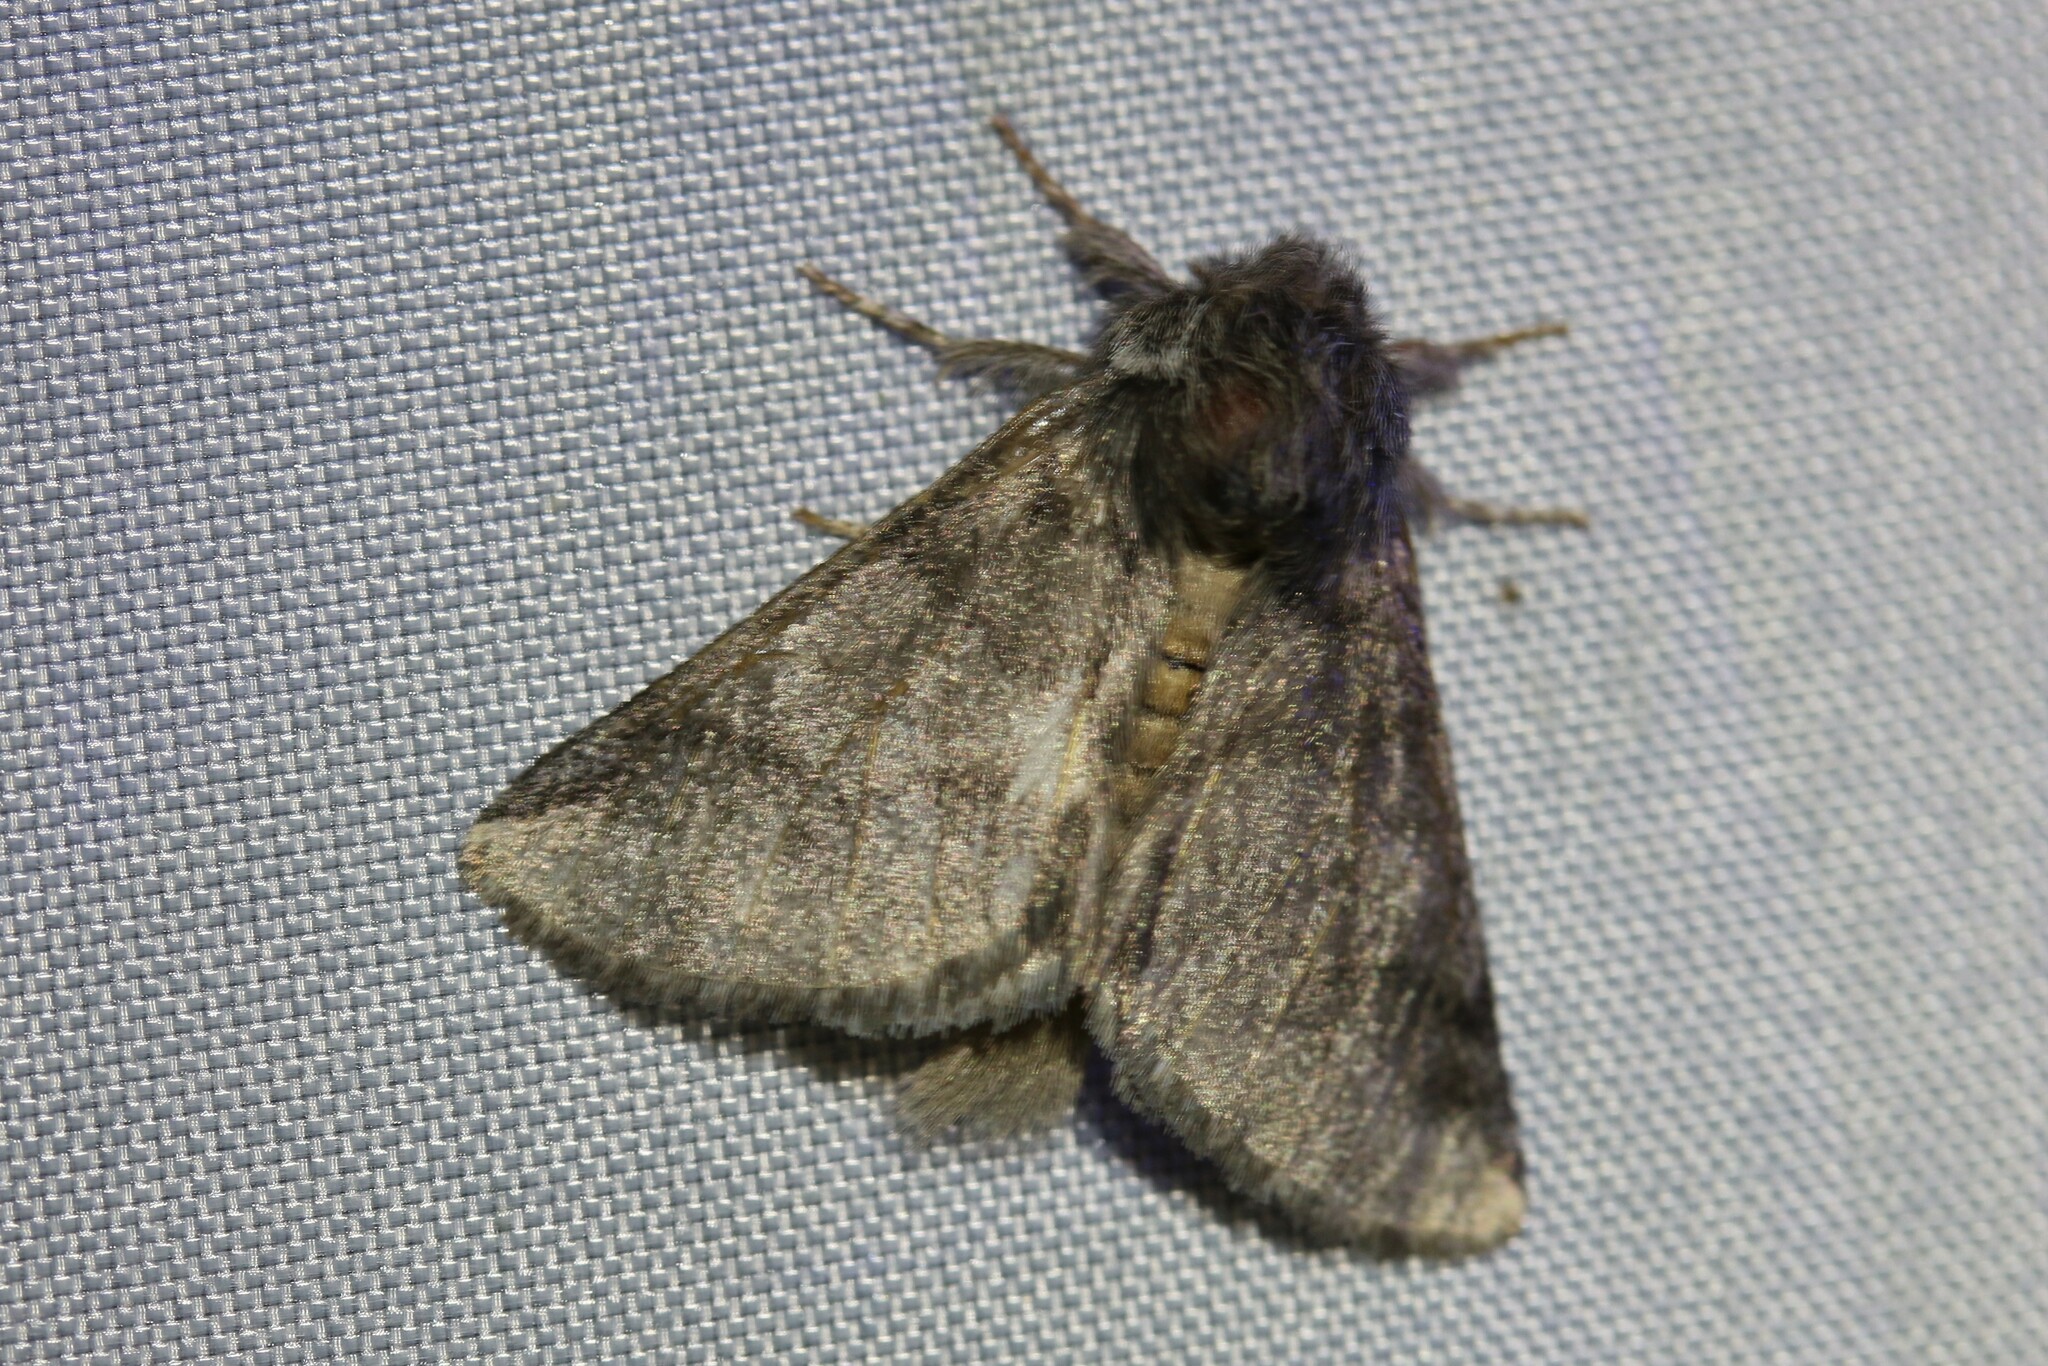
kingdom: Animalia
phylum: Arthropoda
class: Insecta
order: Lepidoptera
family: Notodontidae
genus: Thaumetopoea
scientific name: Thaumetopoea processionea
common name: Oak processionea
